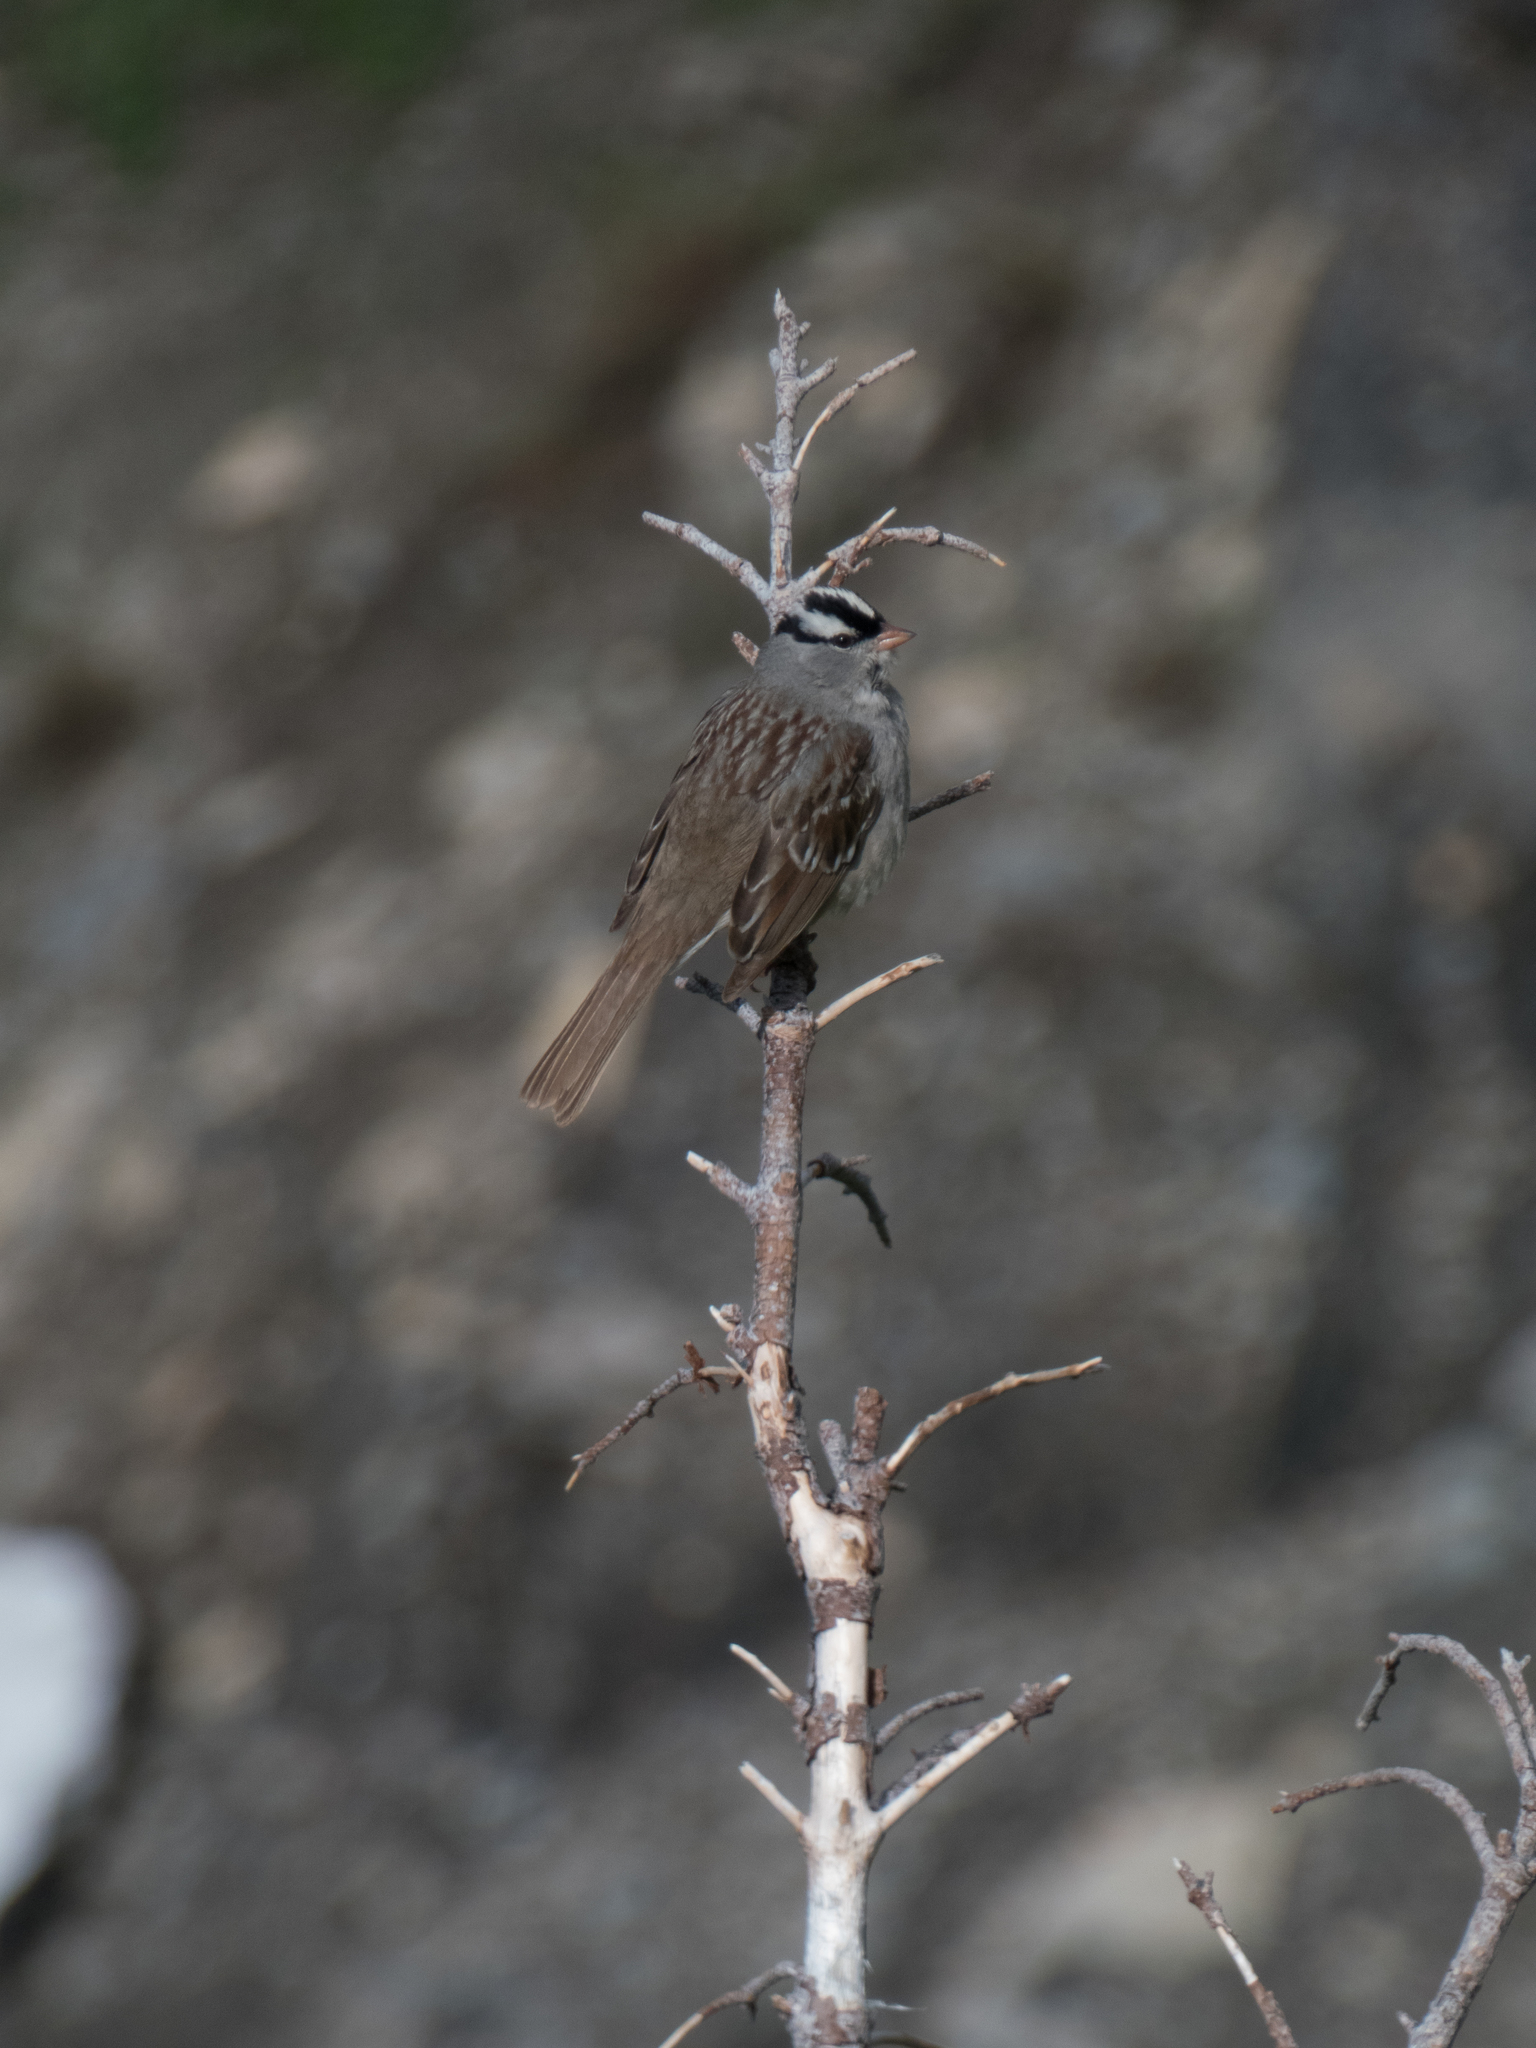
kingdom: Animalia
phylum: Chordata
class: Aves
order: Passeriformes
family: Passerellidae
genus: Zonotrichia
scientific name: Zonotrichia leucophrys
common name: White-crowned sparrow
